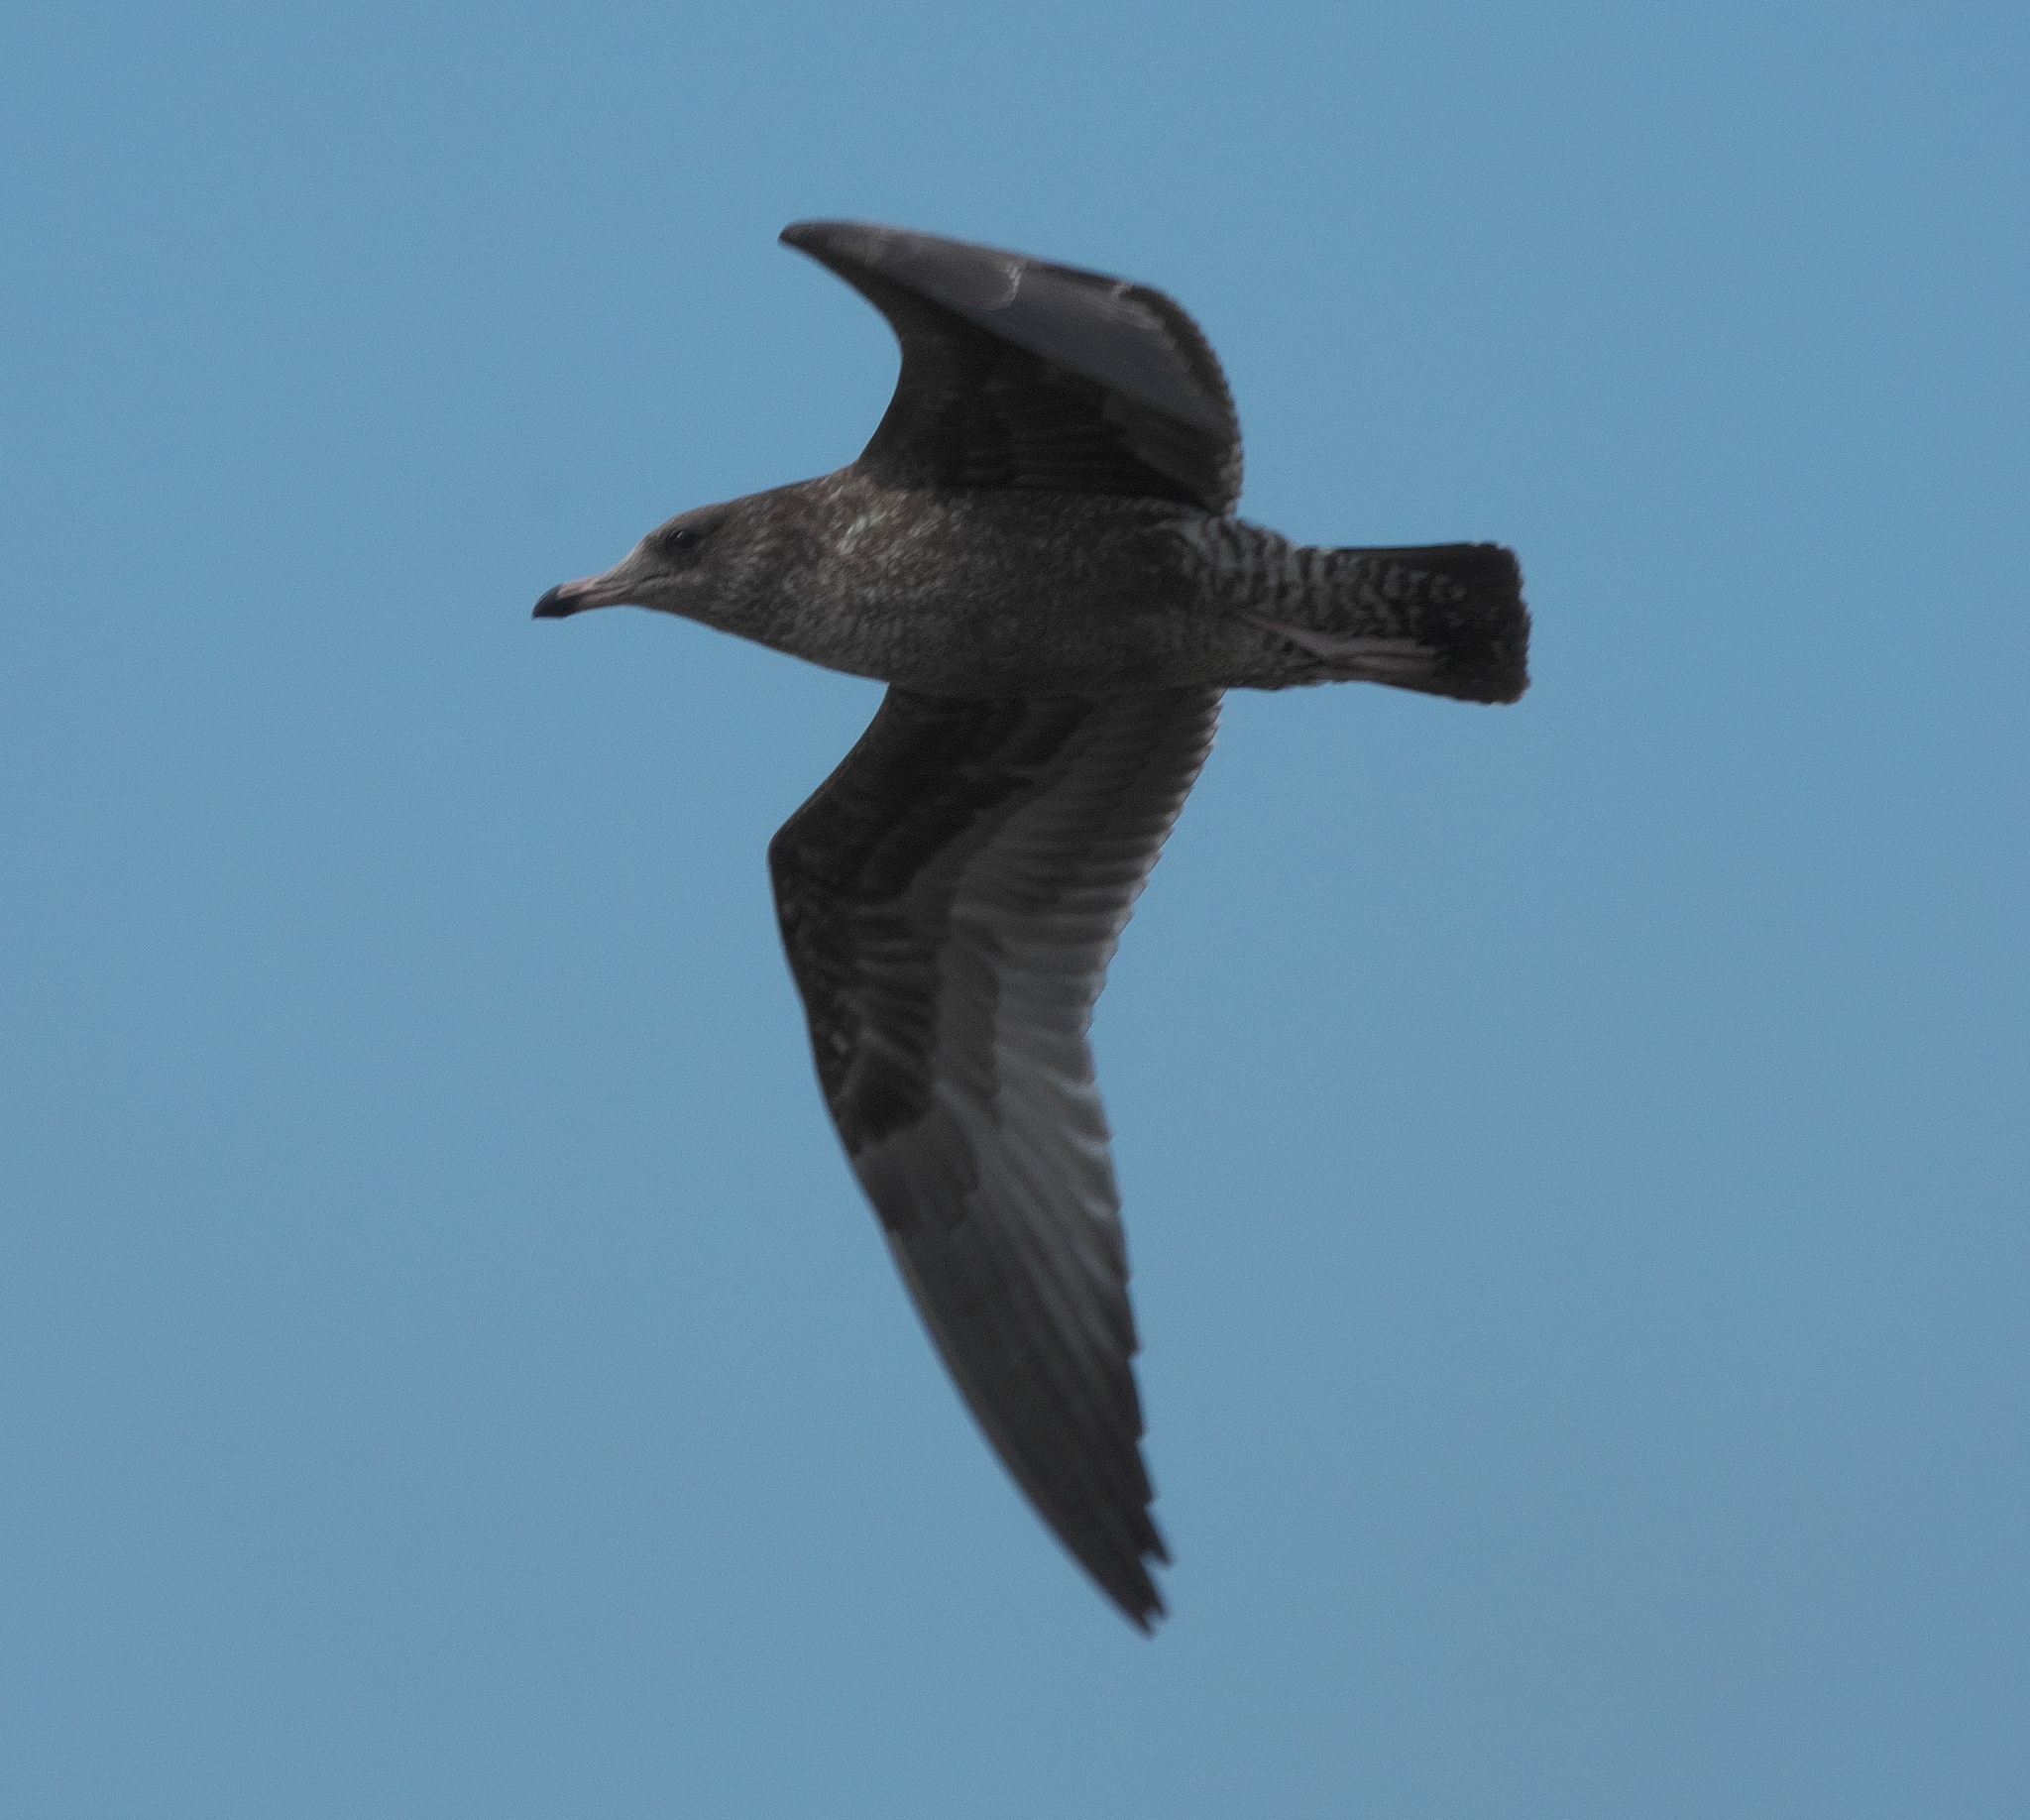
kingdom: Animalia
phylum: Chordata
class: Aves
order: Charadriiformes
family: Laridae
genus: Larus
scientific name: Larus occidentalis
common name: Western gull
